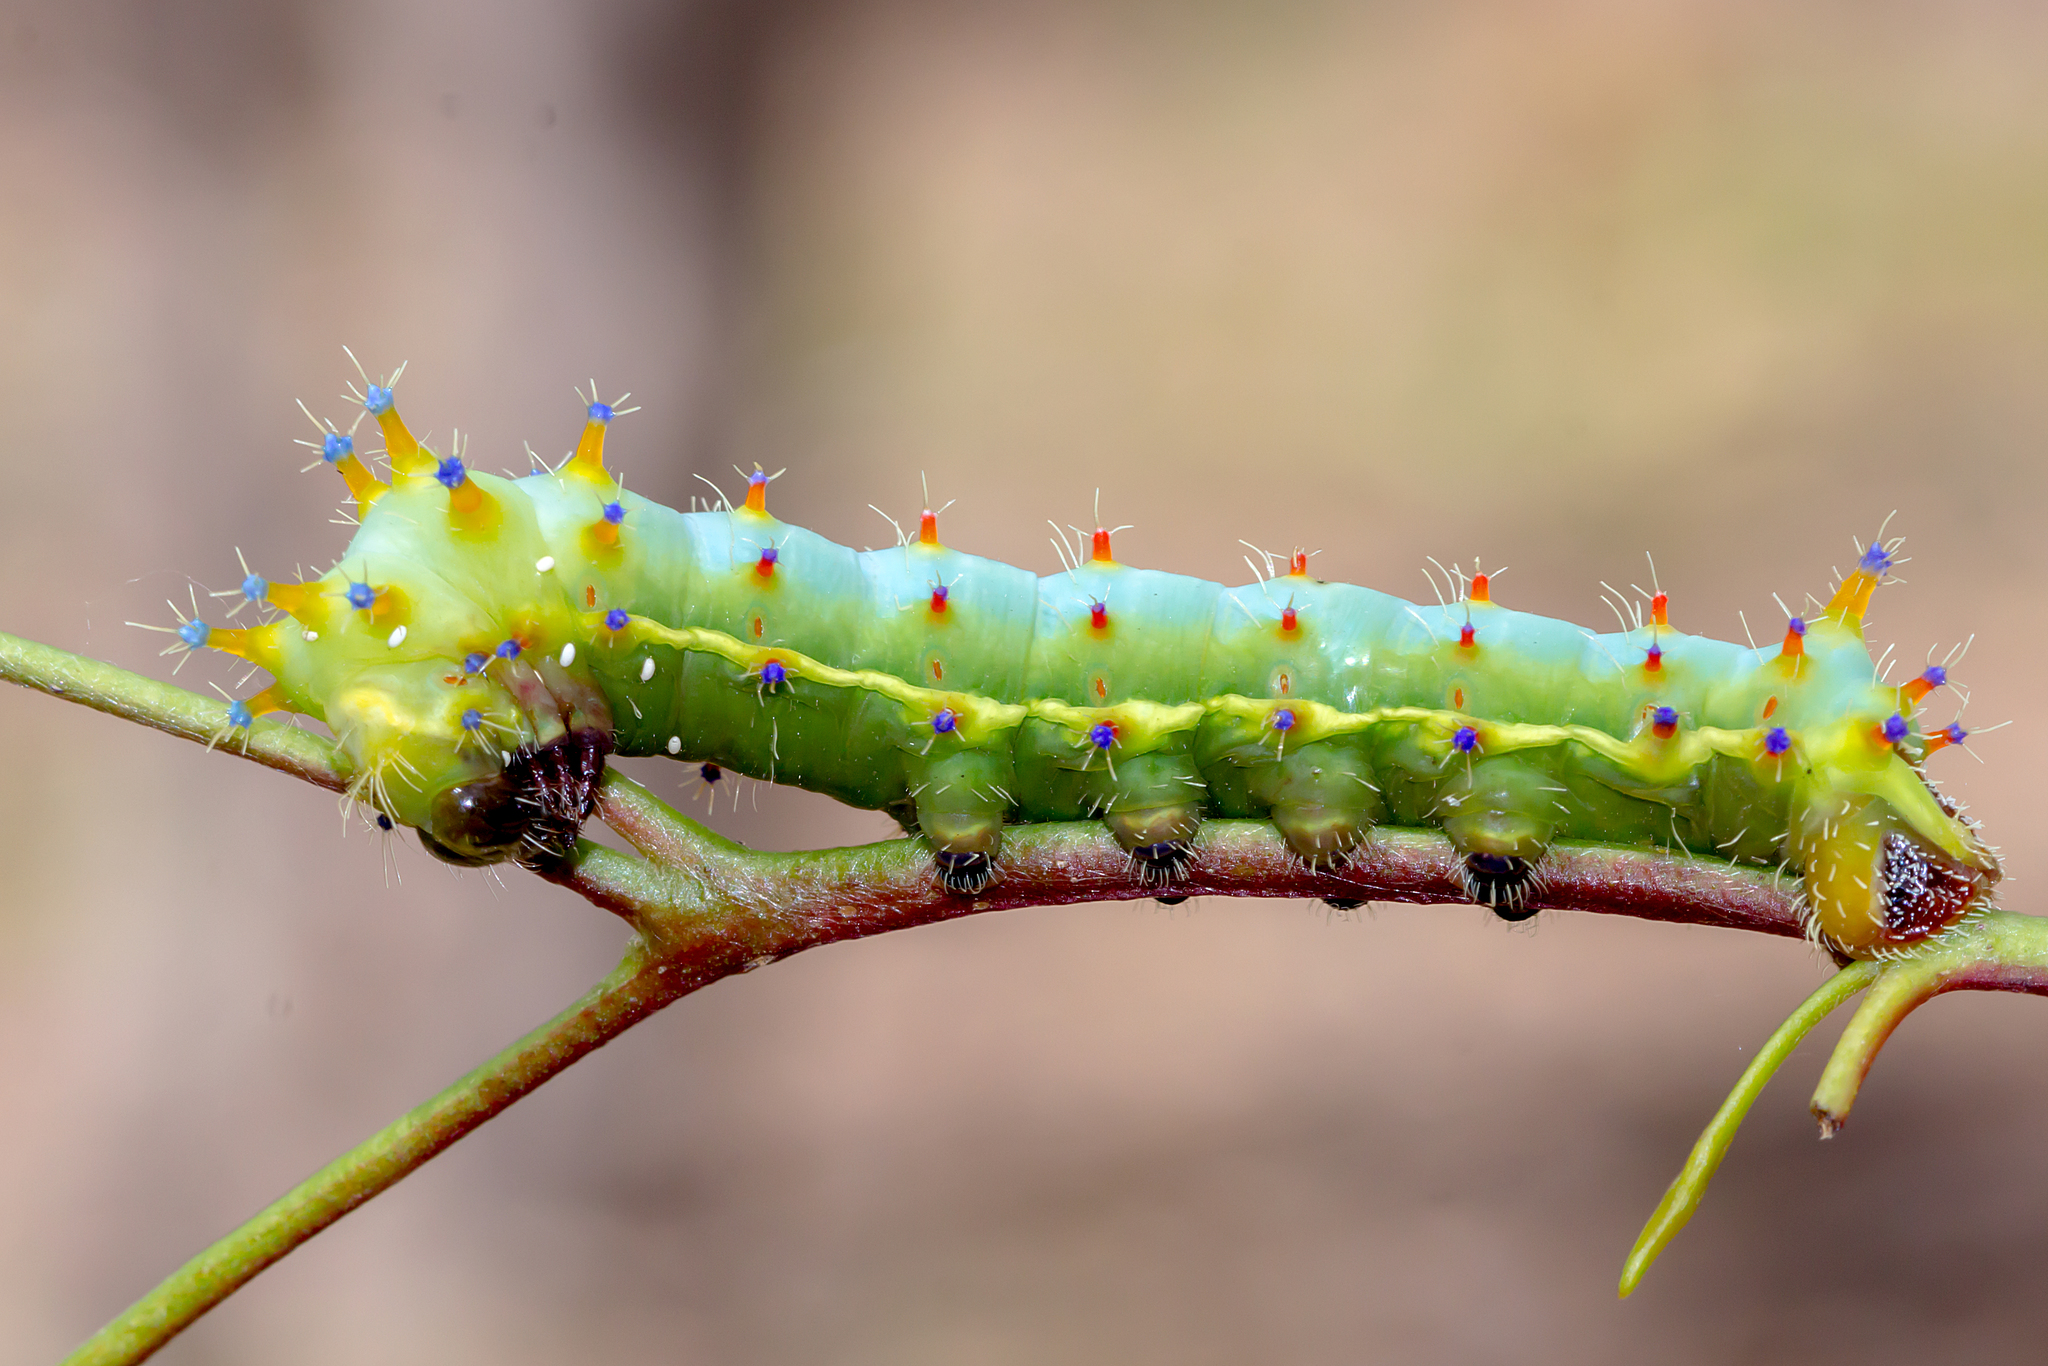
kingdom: Animalia
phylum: Arthropoda
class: Insecta
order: Lepidoptera
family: Saturniidae
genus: Opodiphthera
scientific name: Opodiphthera
